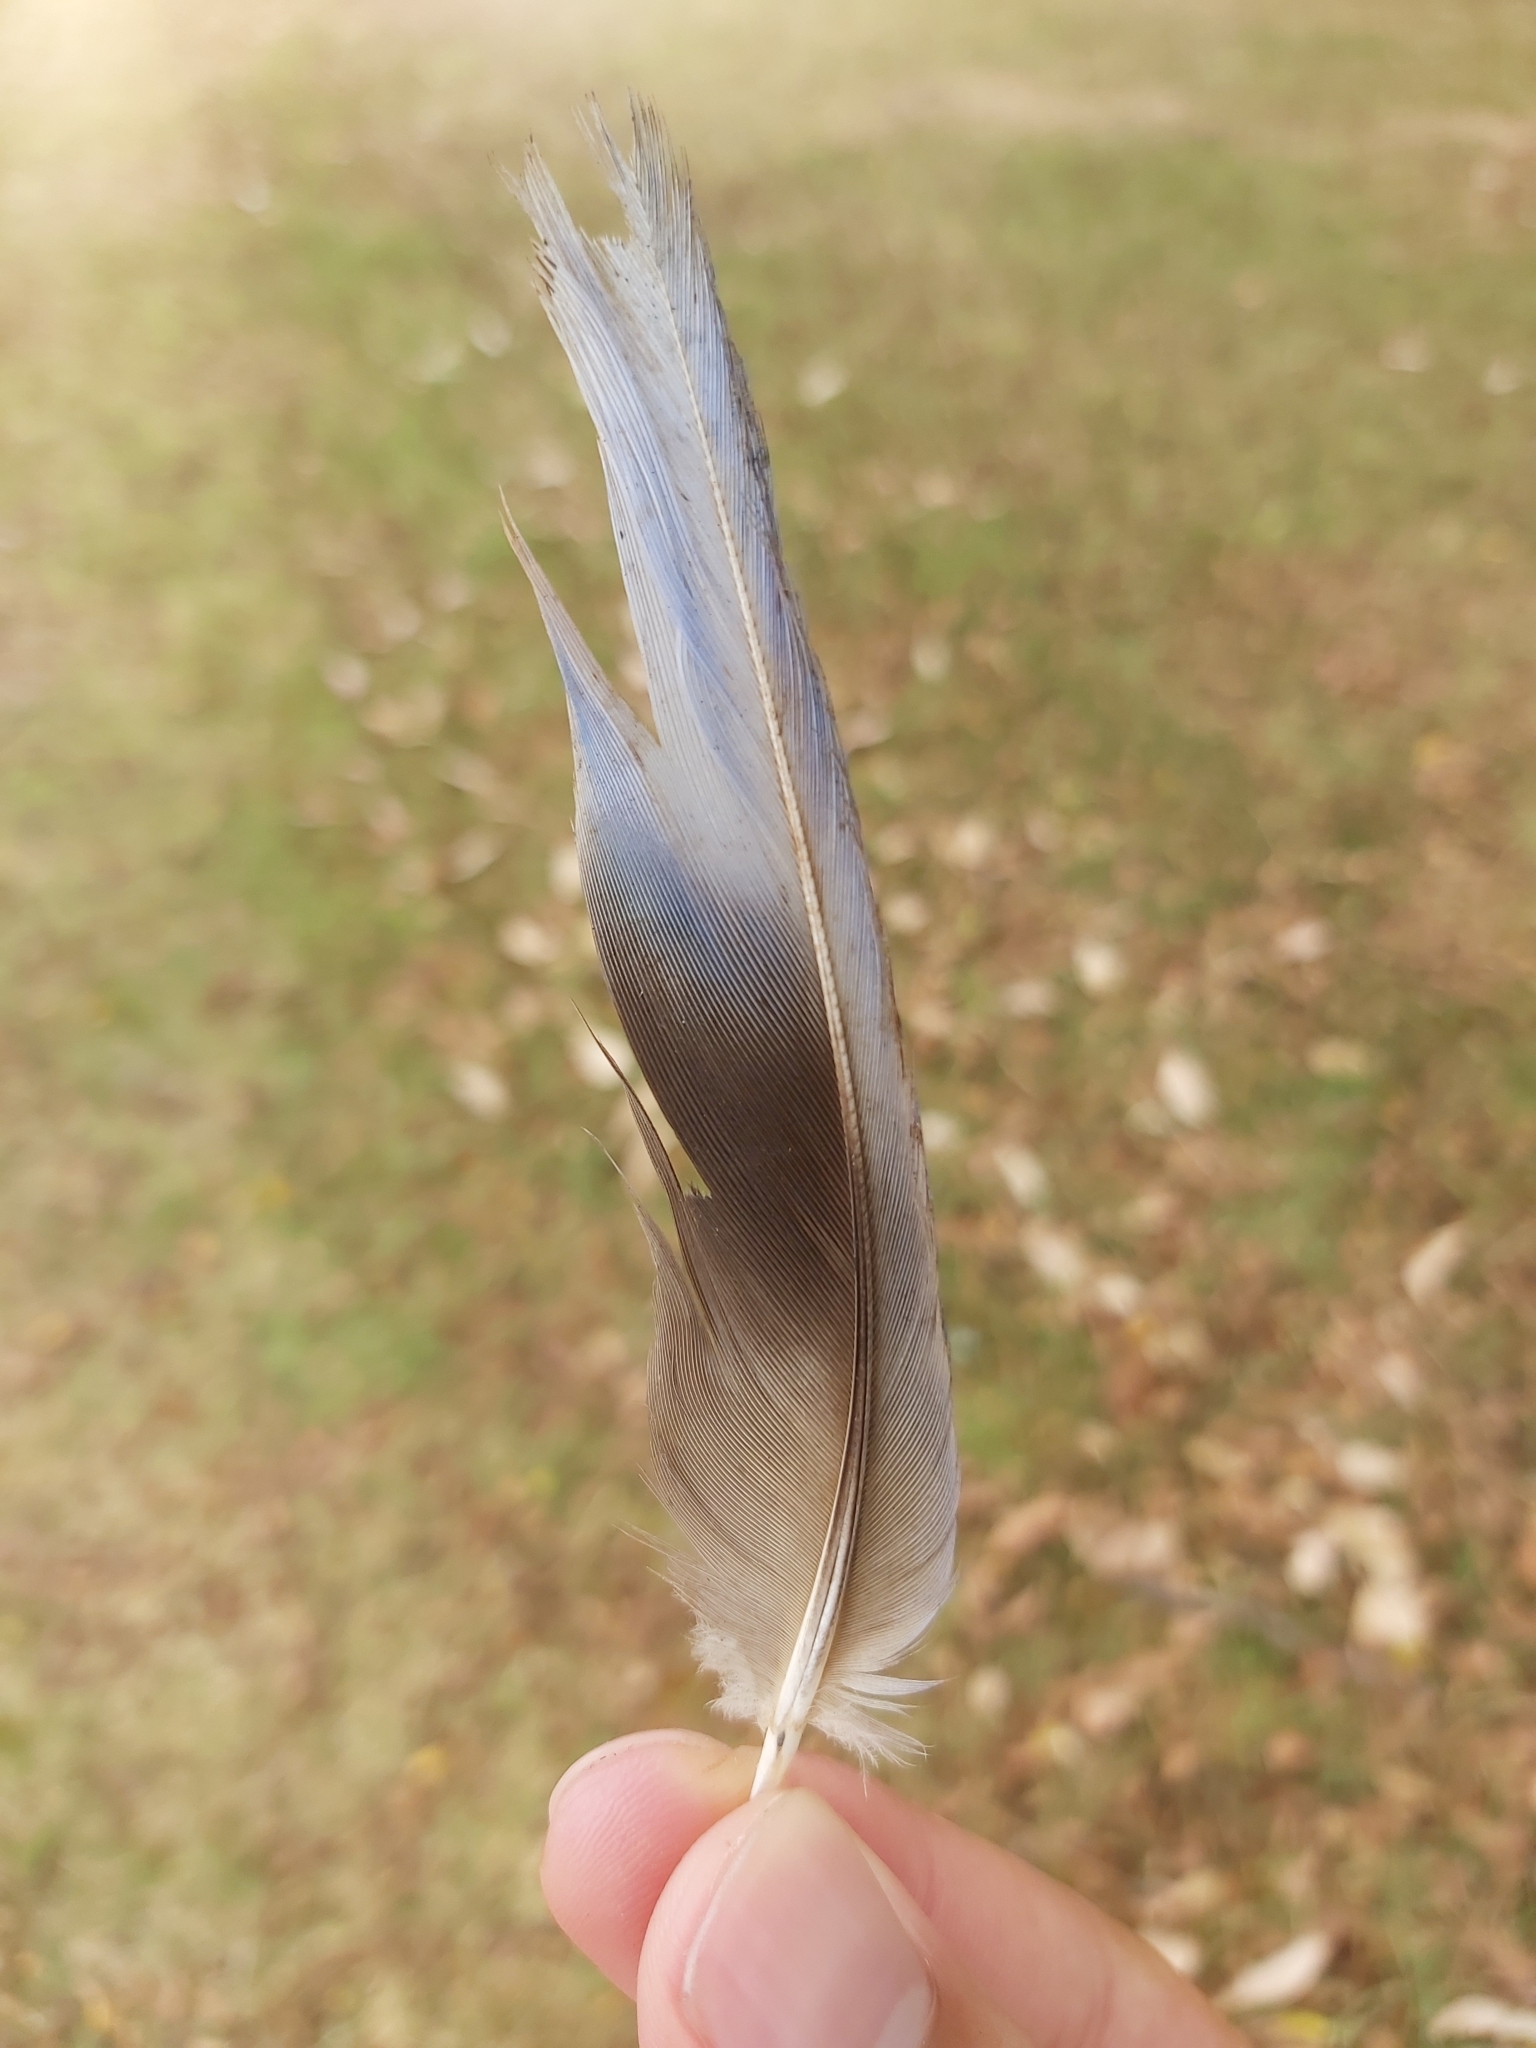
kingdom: Animalia
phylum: Chordata
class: Aves
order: Psittaciformes
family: Psittacidae
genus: Platycercus
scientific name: Platycercus eximius
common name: Eastern rosella
